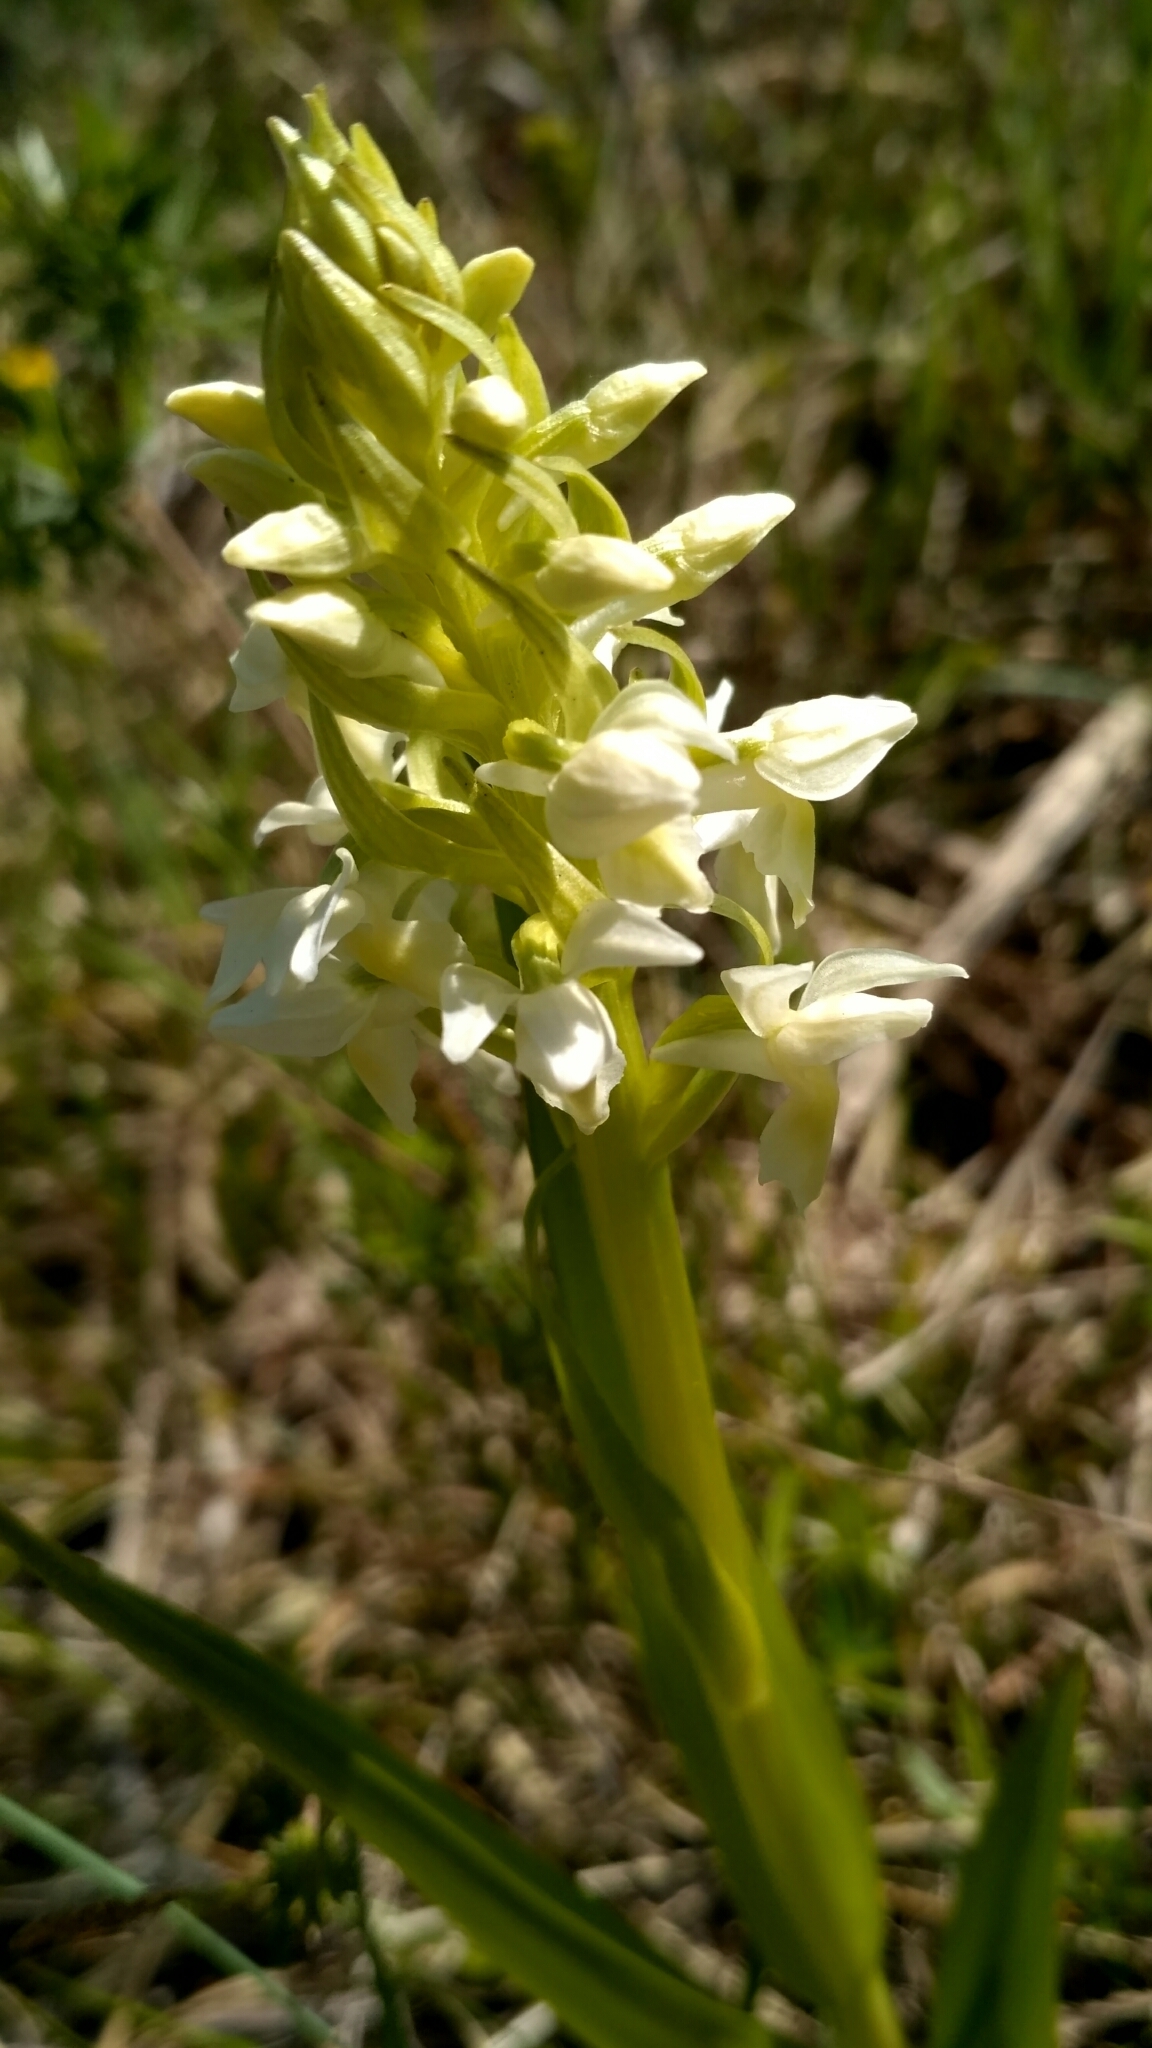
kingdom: Plantae
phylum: Tracheophyta
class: Liliopsida
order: Asparagales
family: Orchidaceae
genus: Dactylorhiza
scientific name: Dactylorhiza incarnata
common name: Early marsh-orchid
